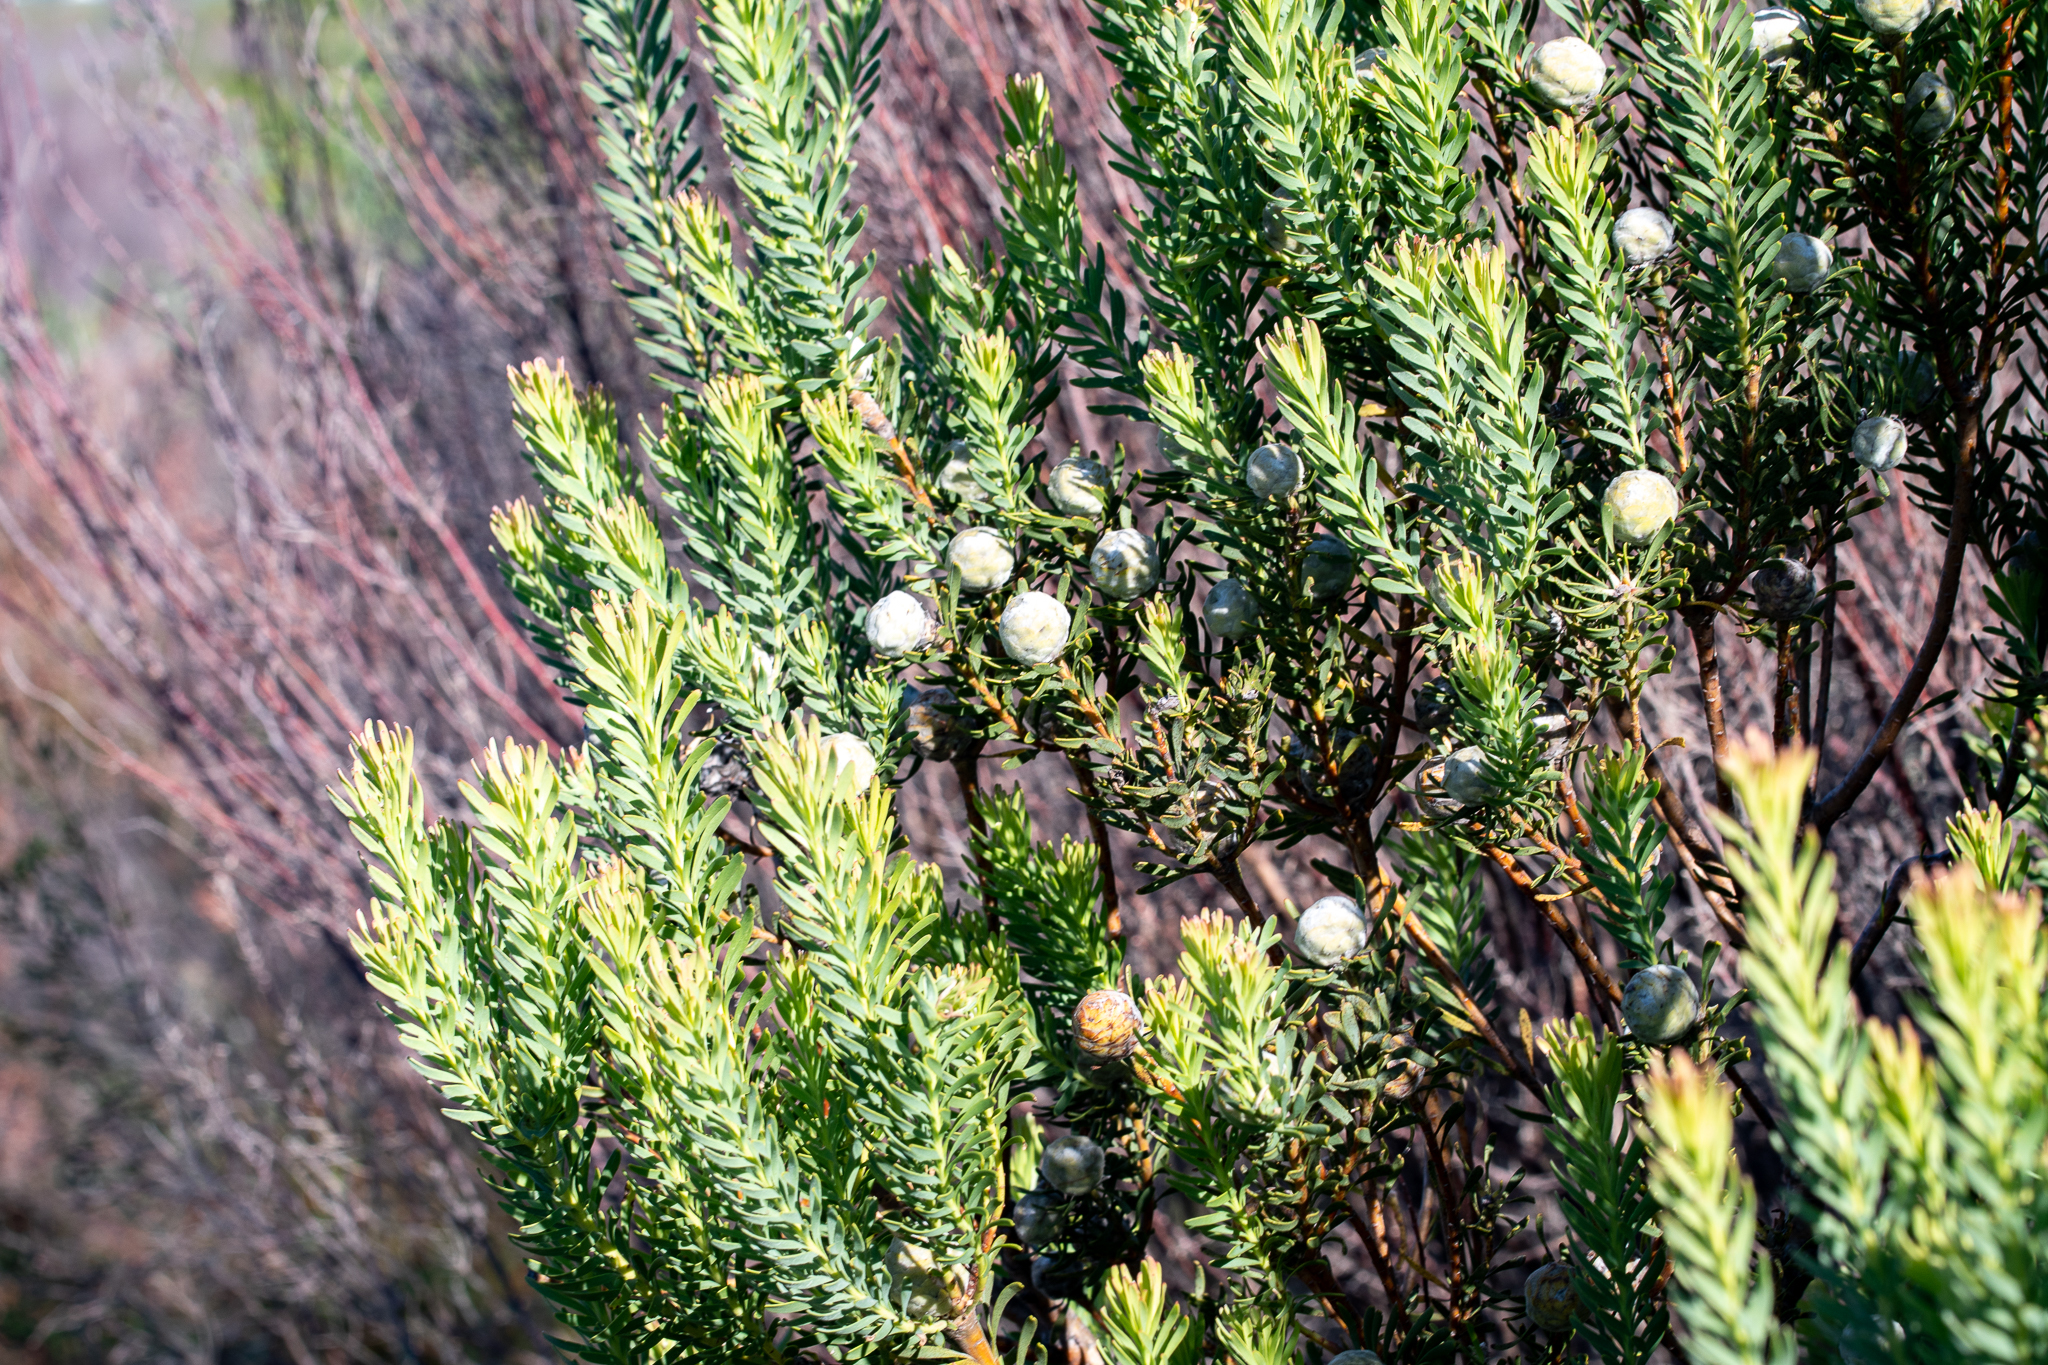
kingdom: Plantae
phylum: Tracheophyta
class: Magnoliopsida
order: Proteales
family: Proteaceae
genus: Leucadendron
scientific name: Leucadendron linifolium
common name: Line-leaf conebush
